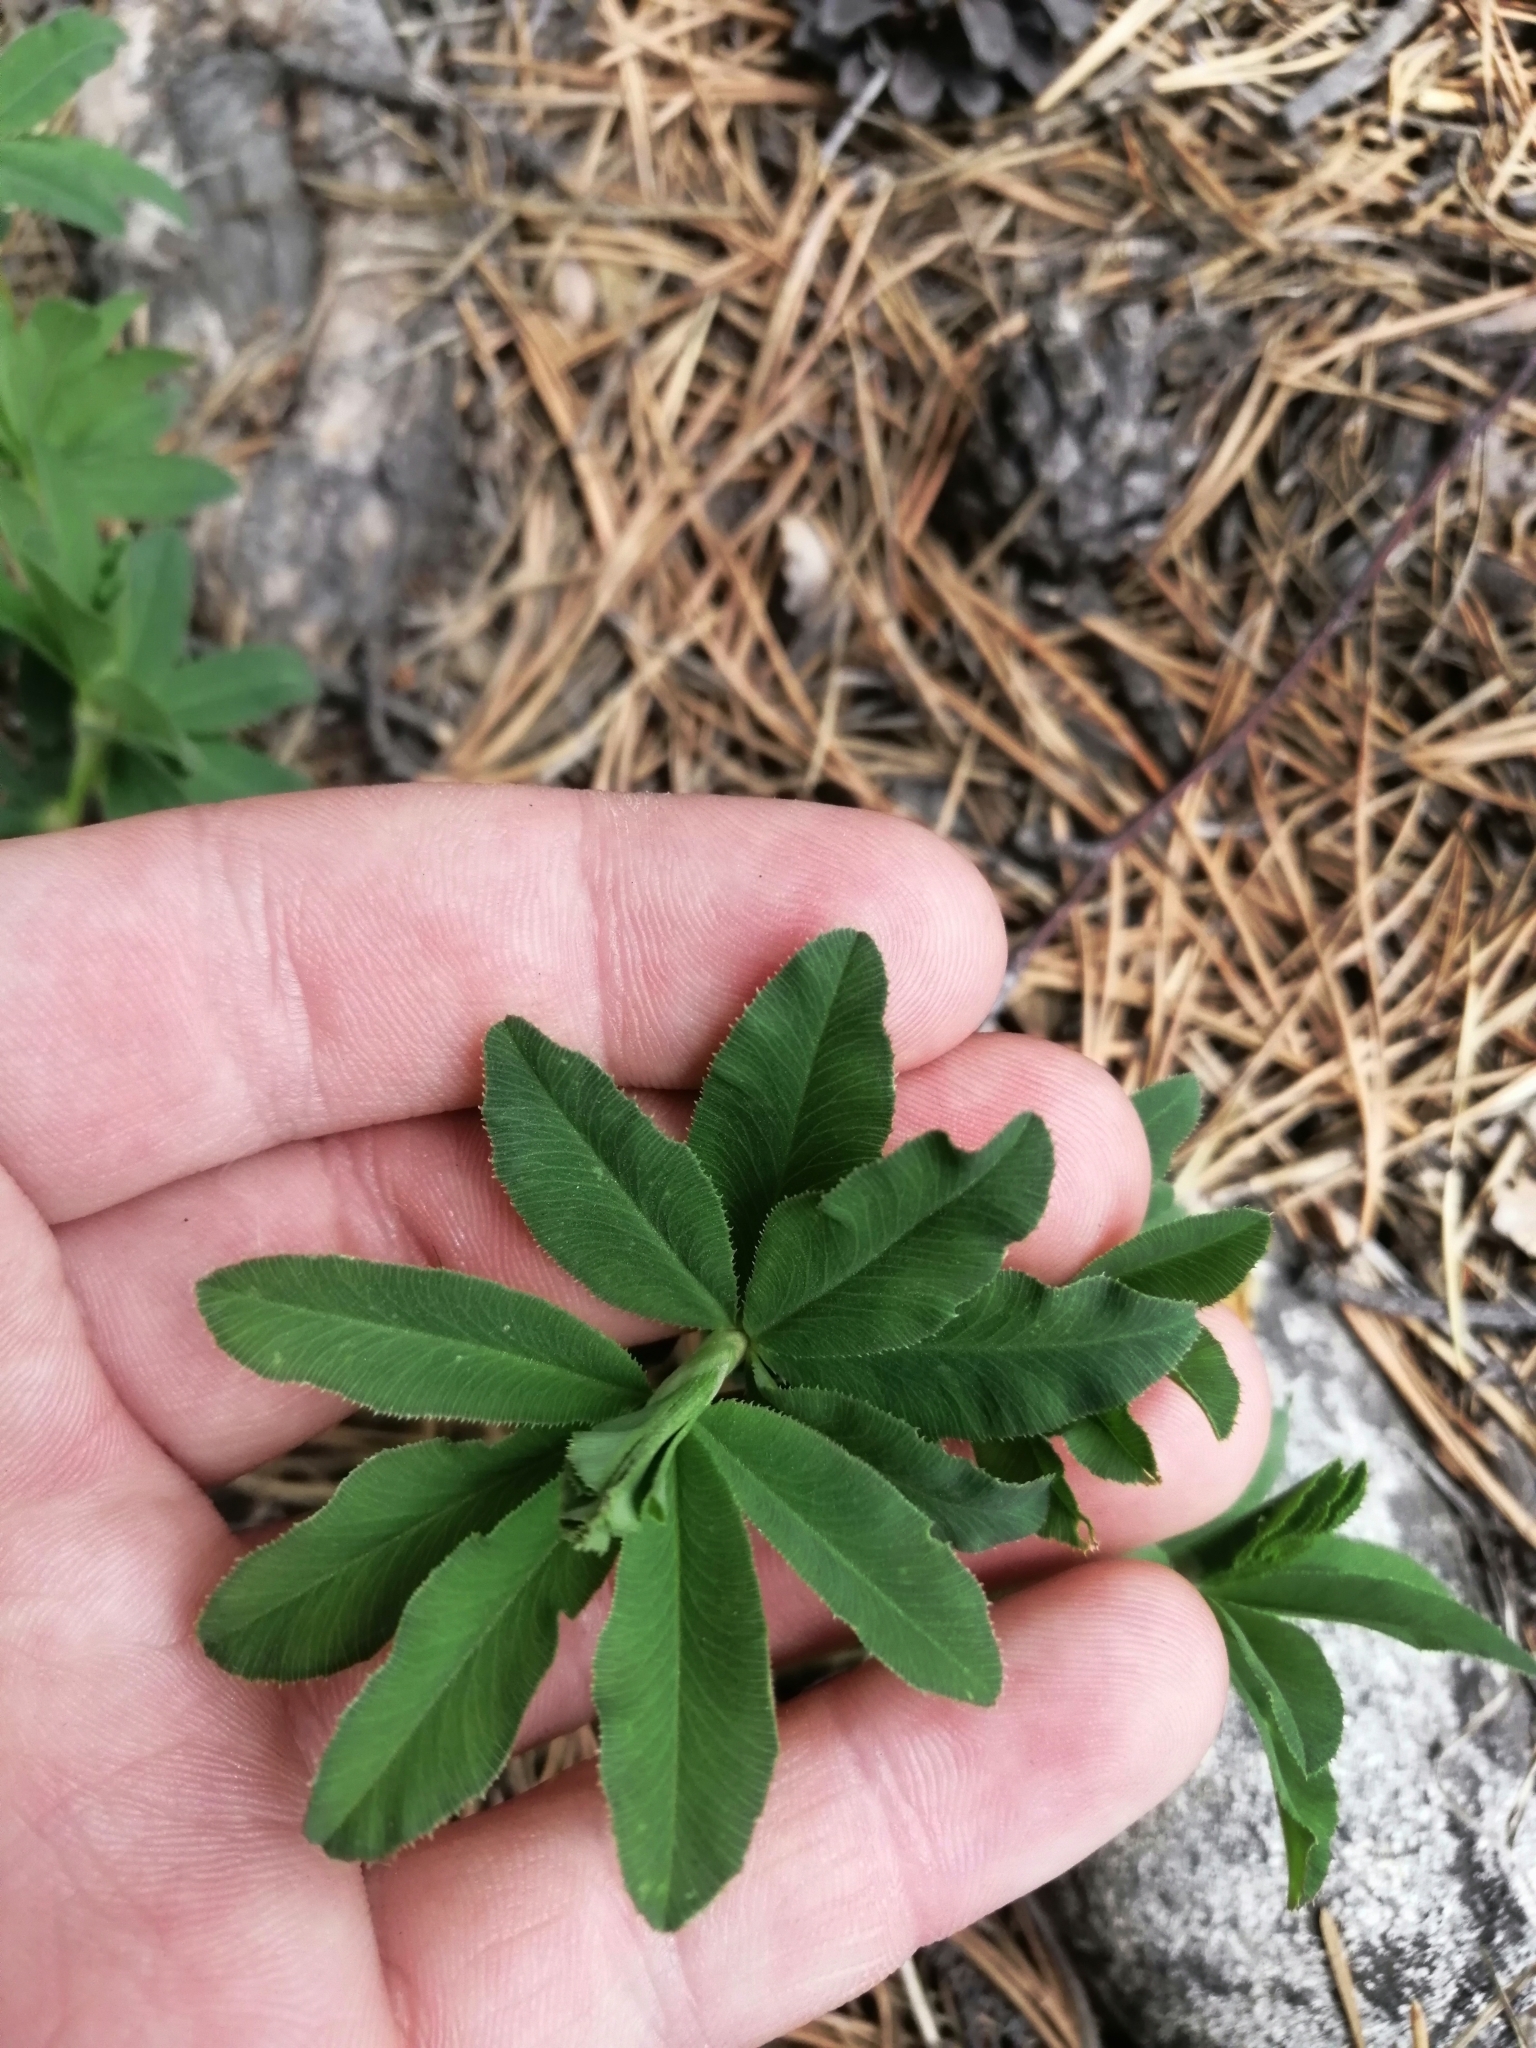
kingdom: Plantae
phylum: Tracheophyta
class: Magnoliopsida
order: Fabales
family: Fabaceae
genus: Trifolium
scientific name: Trifolium lupinaster
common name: Lupine clover
